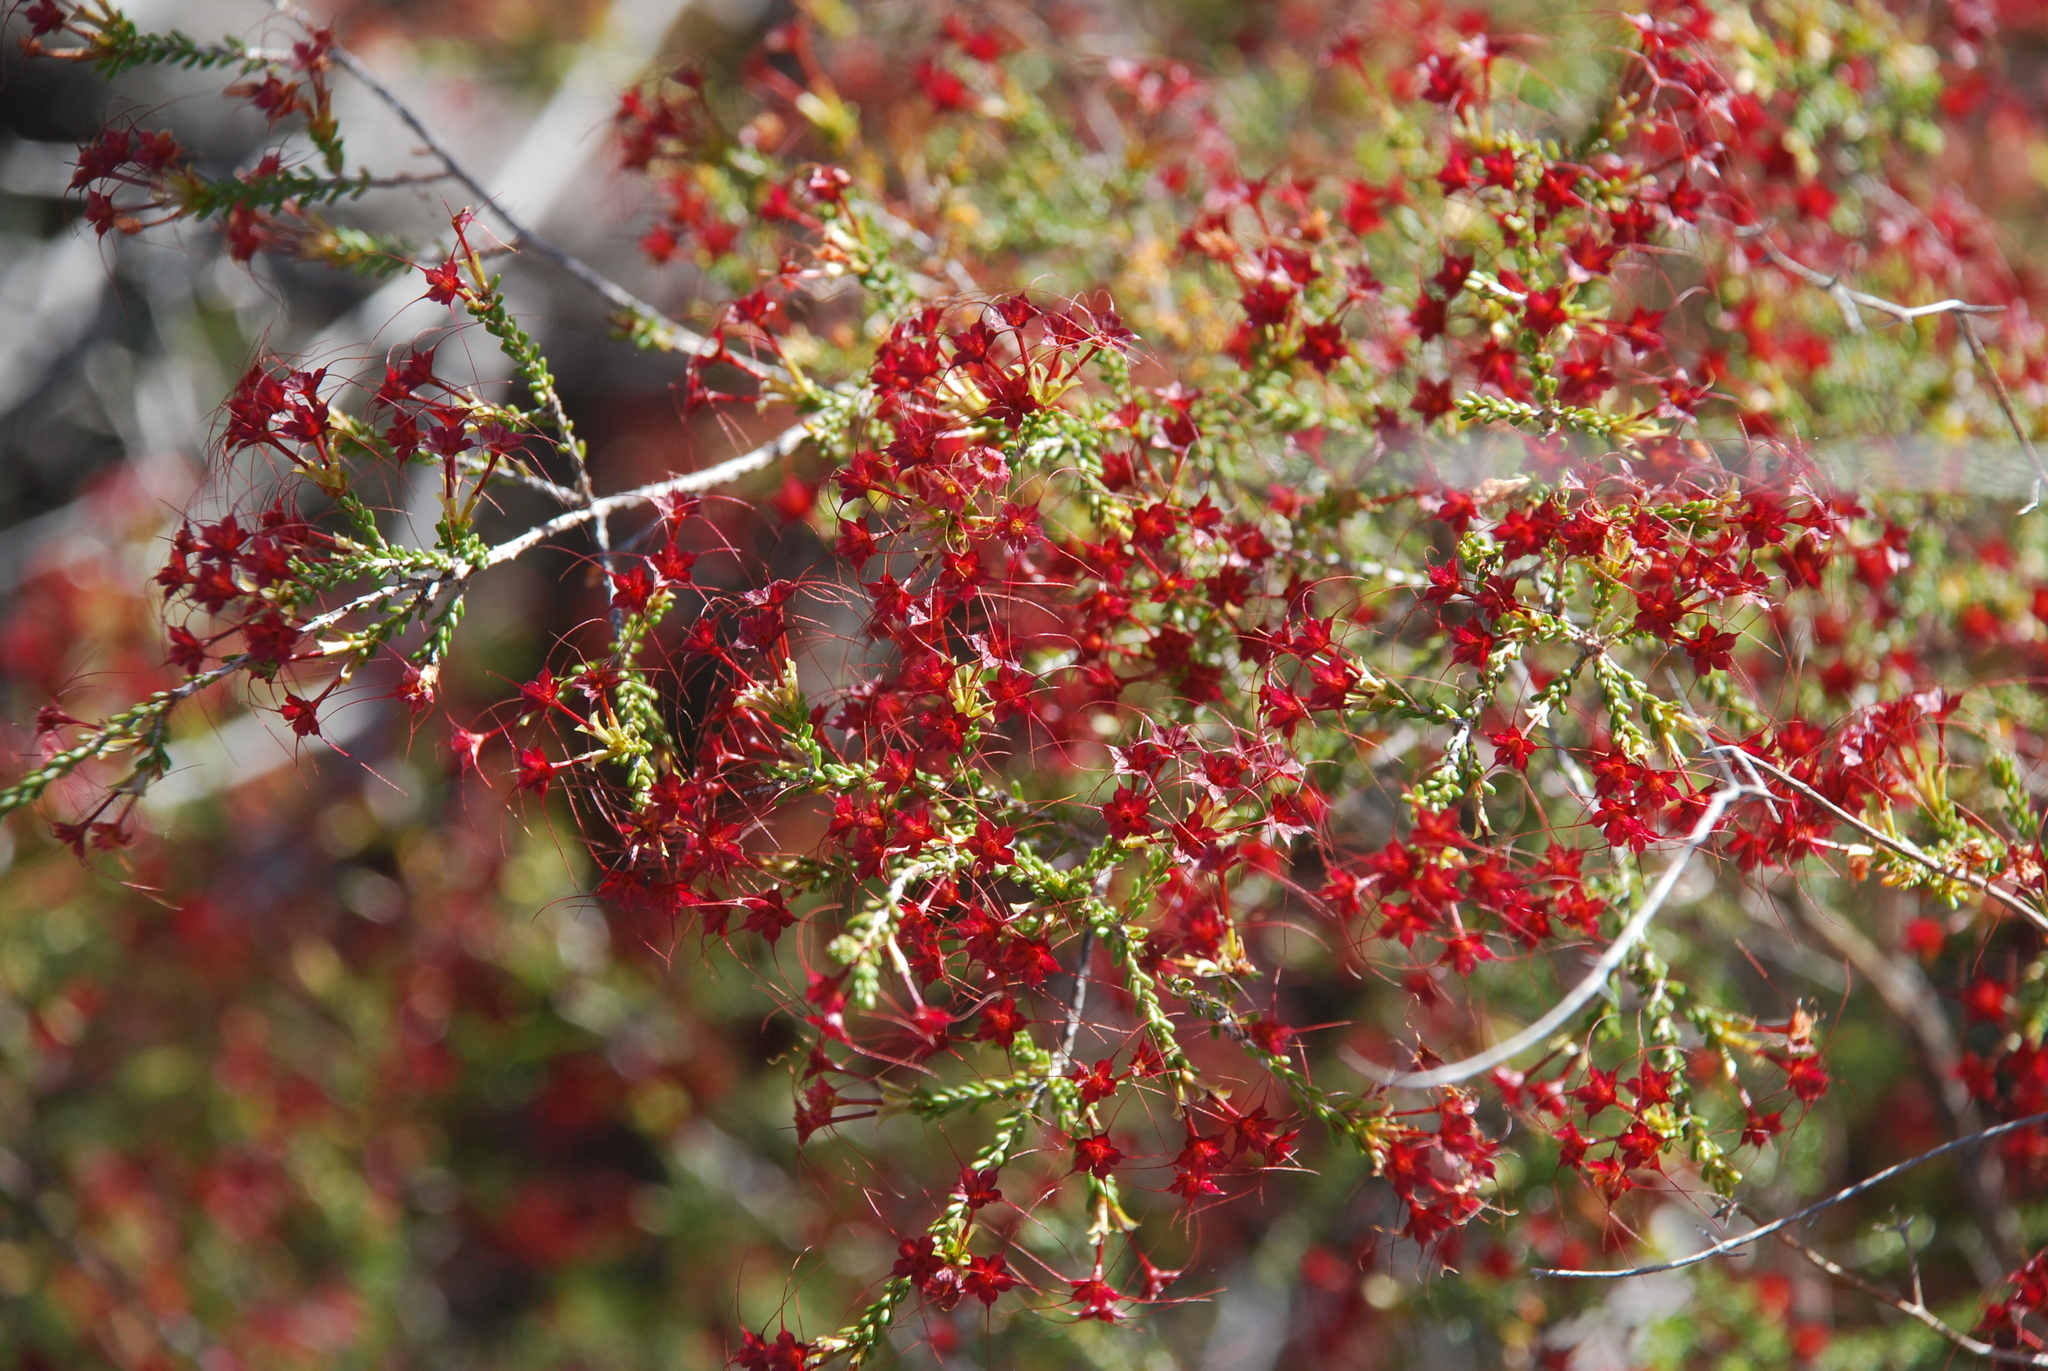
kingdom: Plantae
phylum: Tracheophyta
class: Magnoliopsida
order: Myrtales
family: Myrtaceae
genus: Calytrix
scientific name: Calytrix tetragona
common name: Common fringe myrtle
